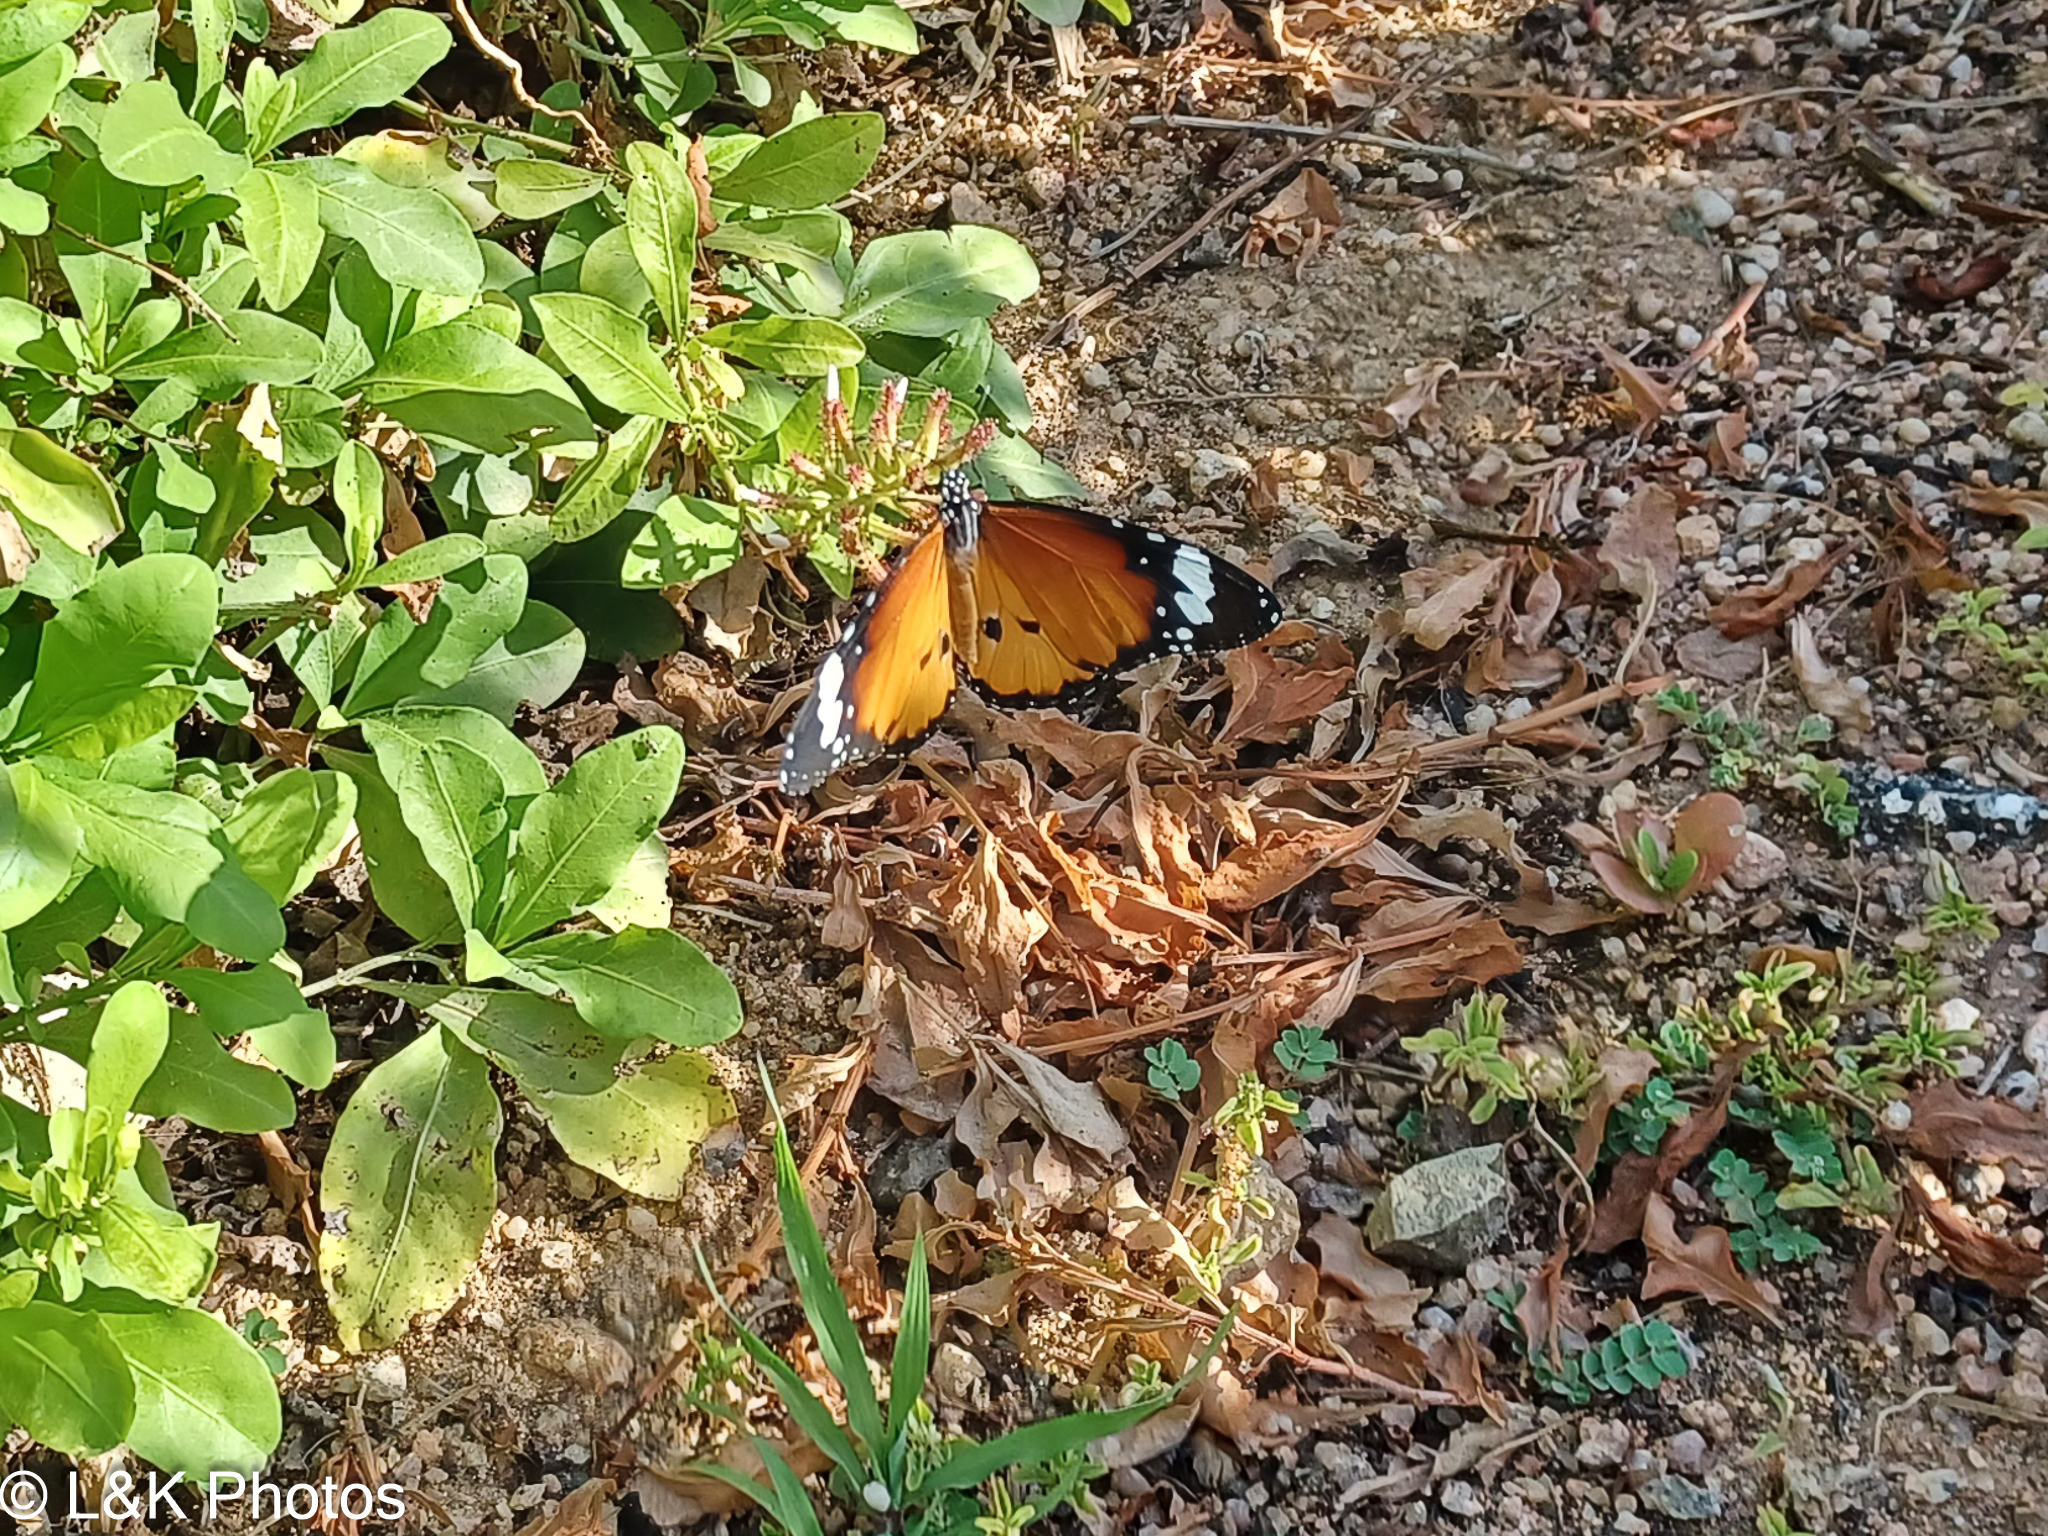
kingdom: Animalia
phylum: Arthropoda
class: Insecta
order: Lepidoptera
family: Nymphalidae
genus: Danaus
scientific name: Danaus chrysippus
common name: Plain tiger
